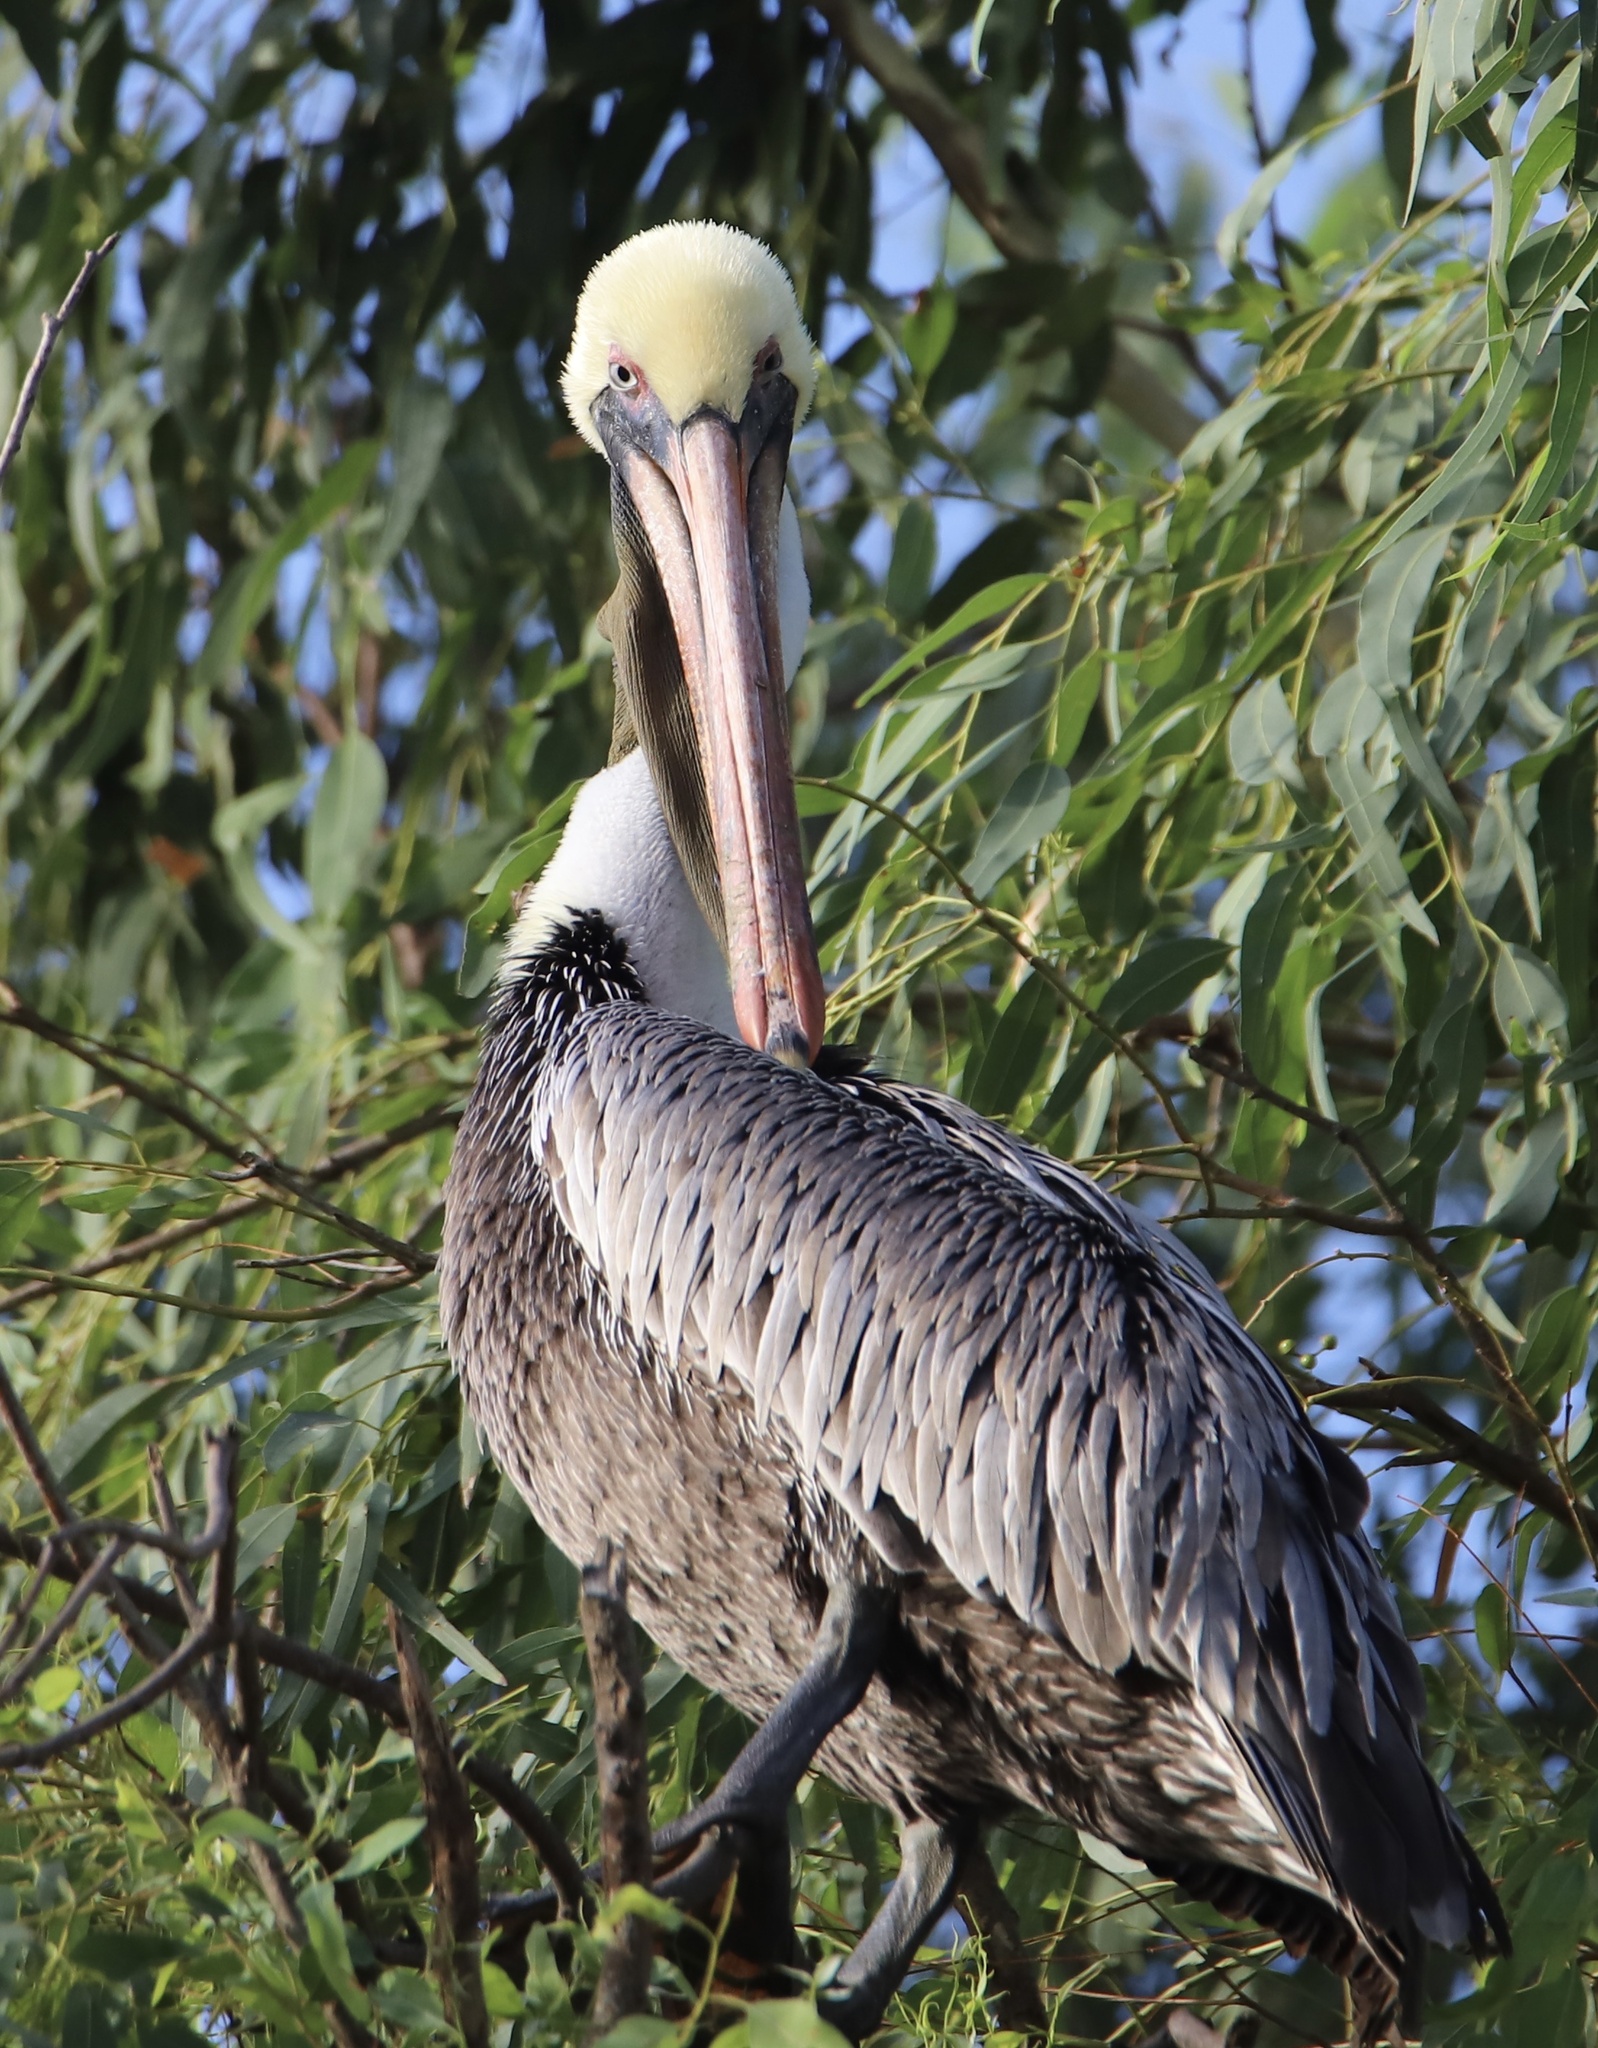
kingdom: Animalia
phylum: Chordata
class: Aves
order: Pelecaniformes
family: Pelecanidae
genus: Pelecanus
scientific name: Pelecanus occidentalis
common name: Brown pelican
